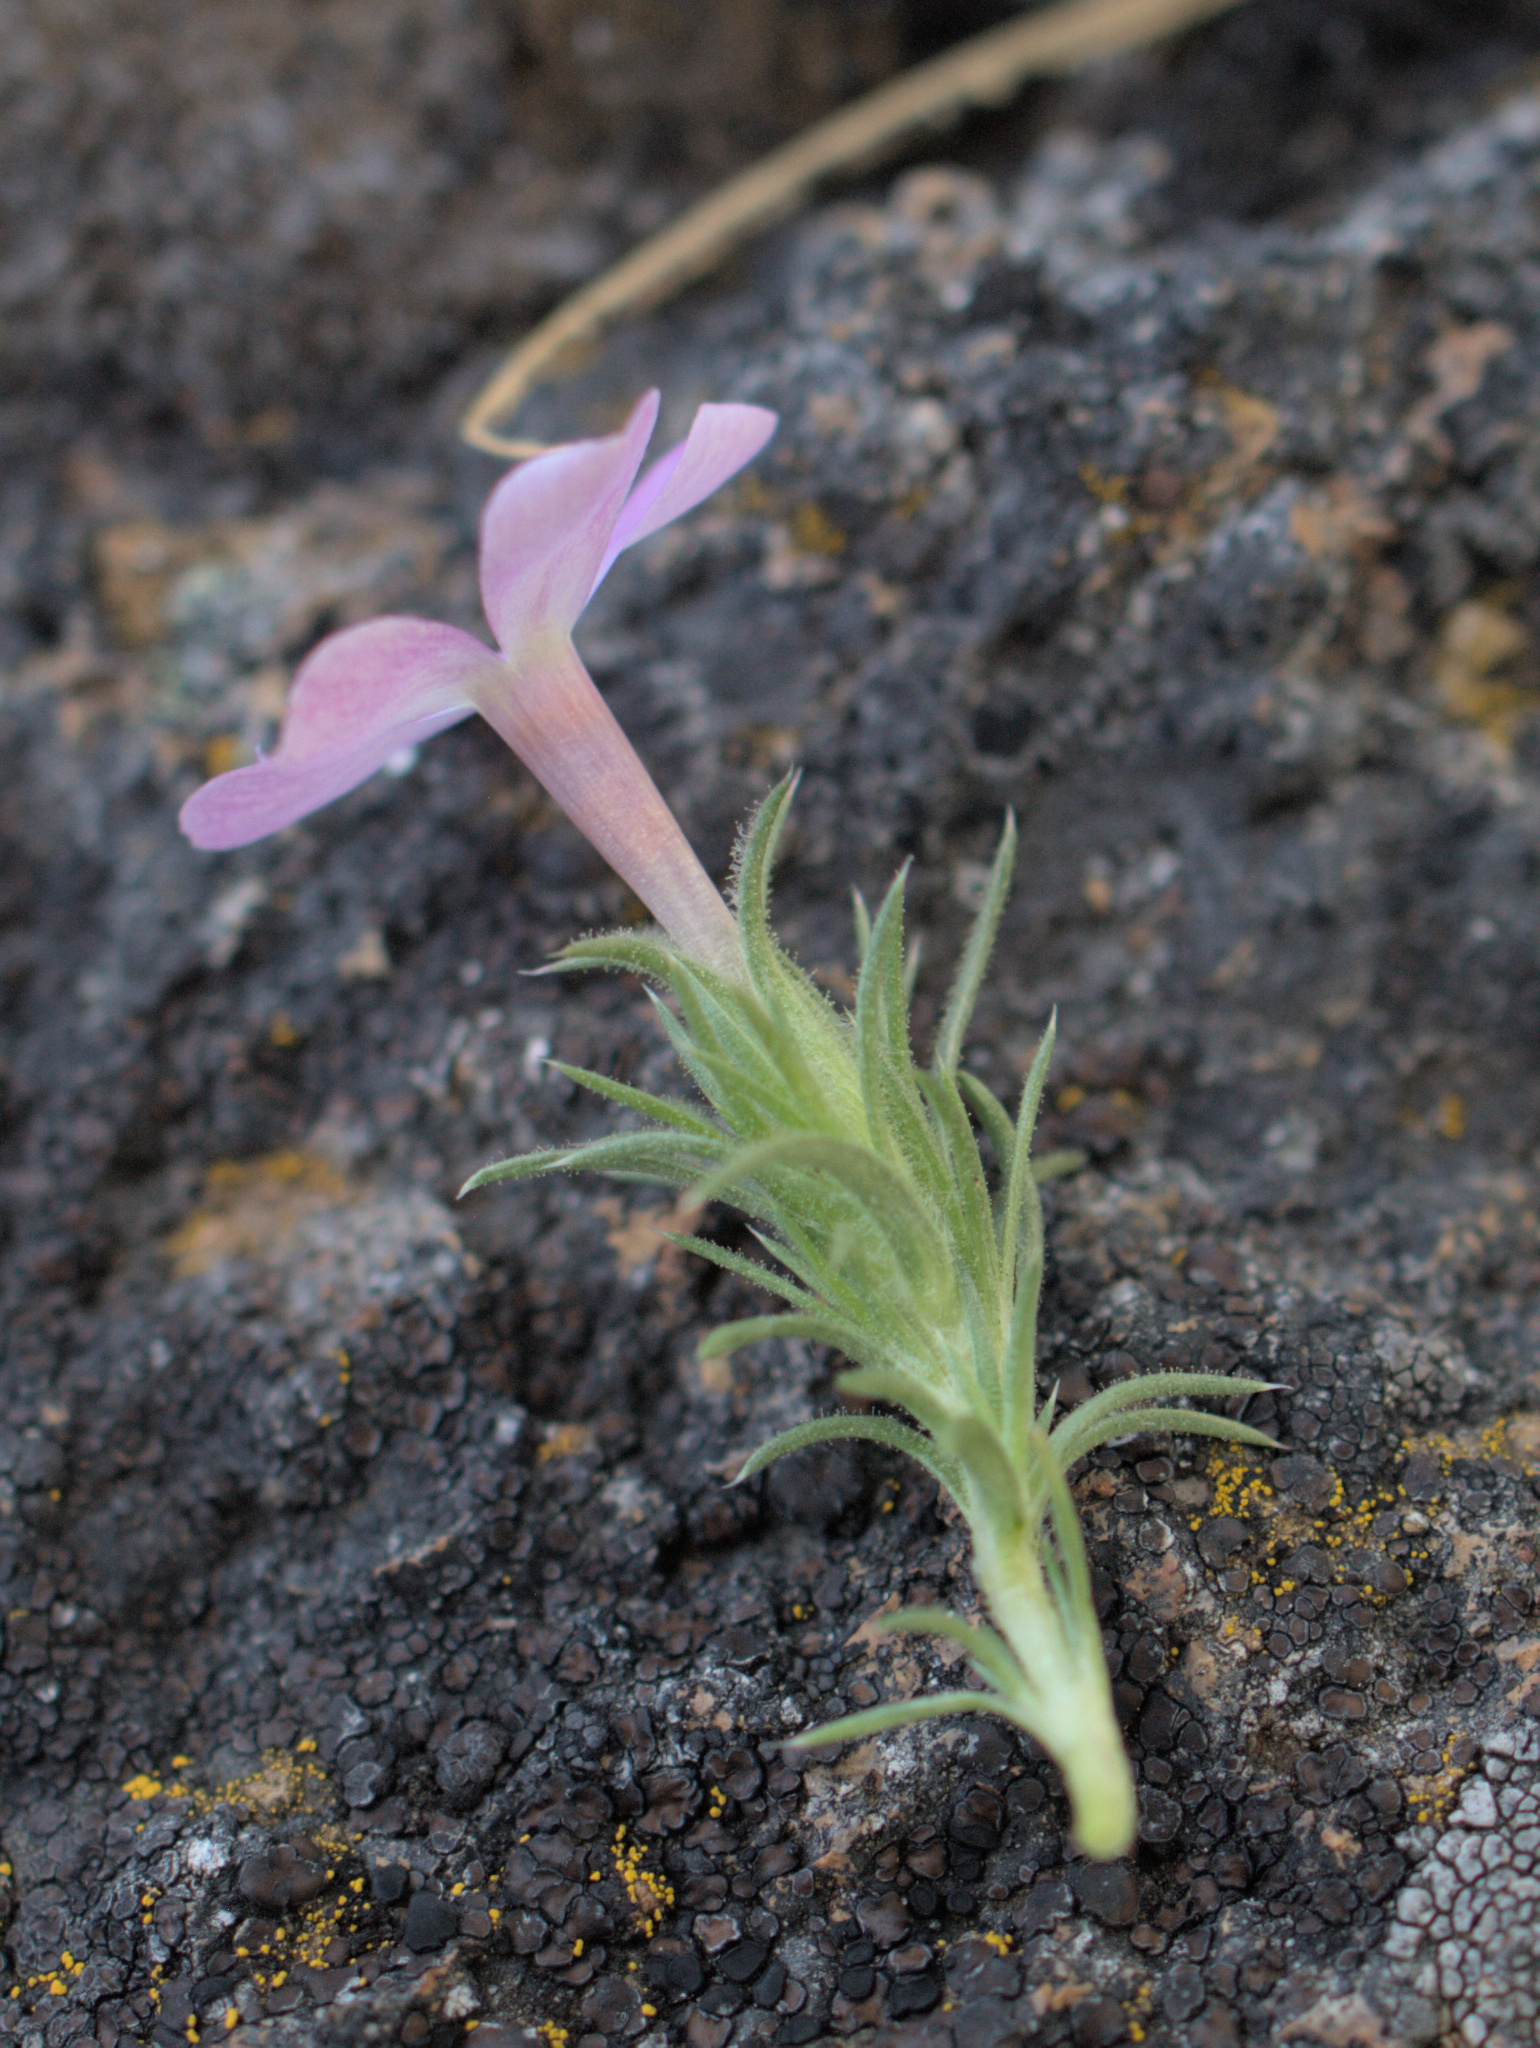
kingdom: Plantae
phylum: Tracheophyta
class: Magnoliopsida
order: Ericales
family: Polemoniaceae
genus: Phlox
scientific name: Phlox douglasii
